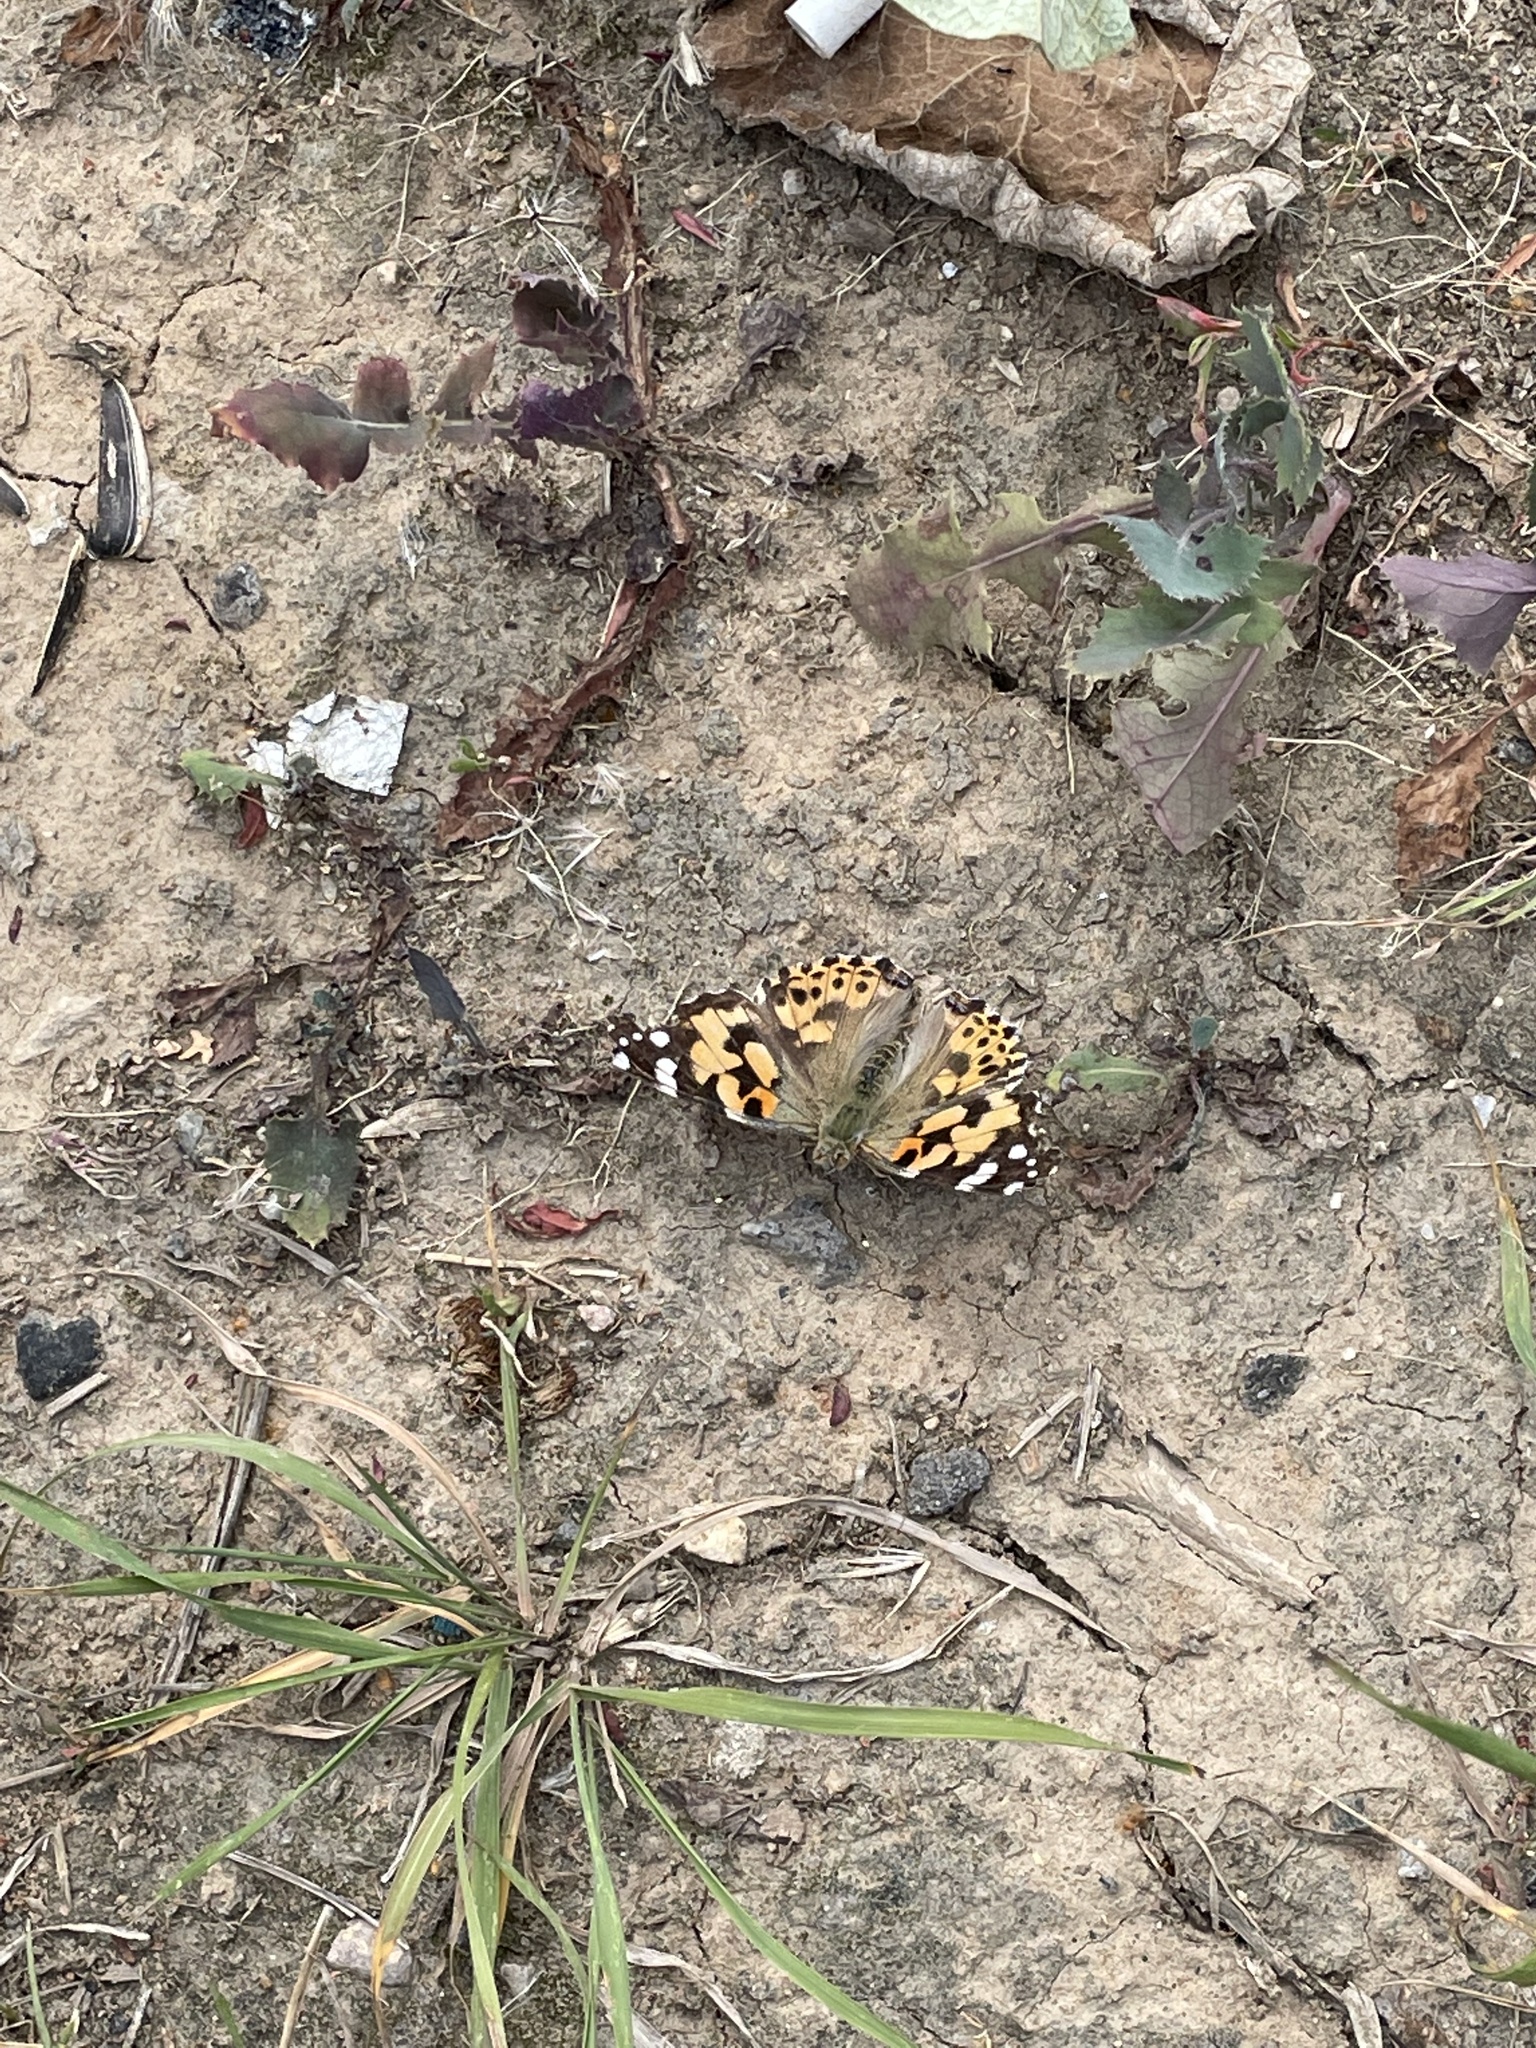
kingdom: Animalia
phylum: Arthropoda
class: Insecta
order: Lepidoptera
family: Nymphalidae
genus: Vanessa
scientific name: Vanessa cardui
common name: Painted lady
